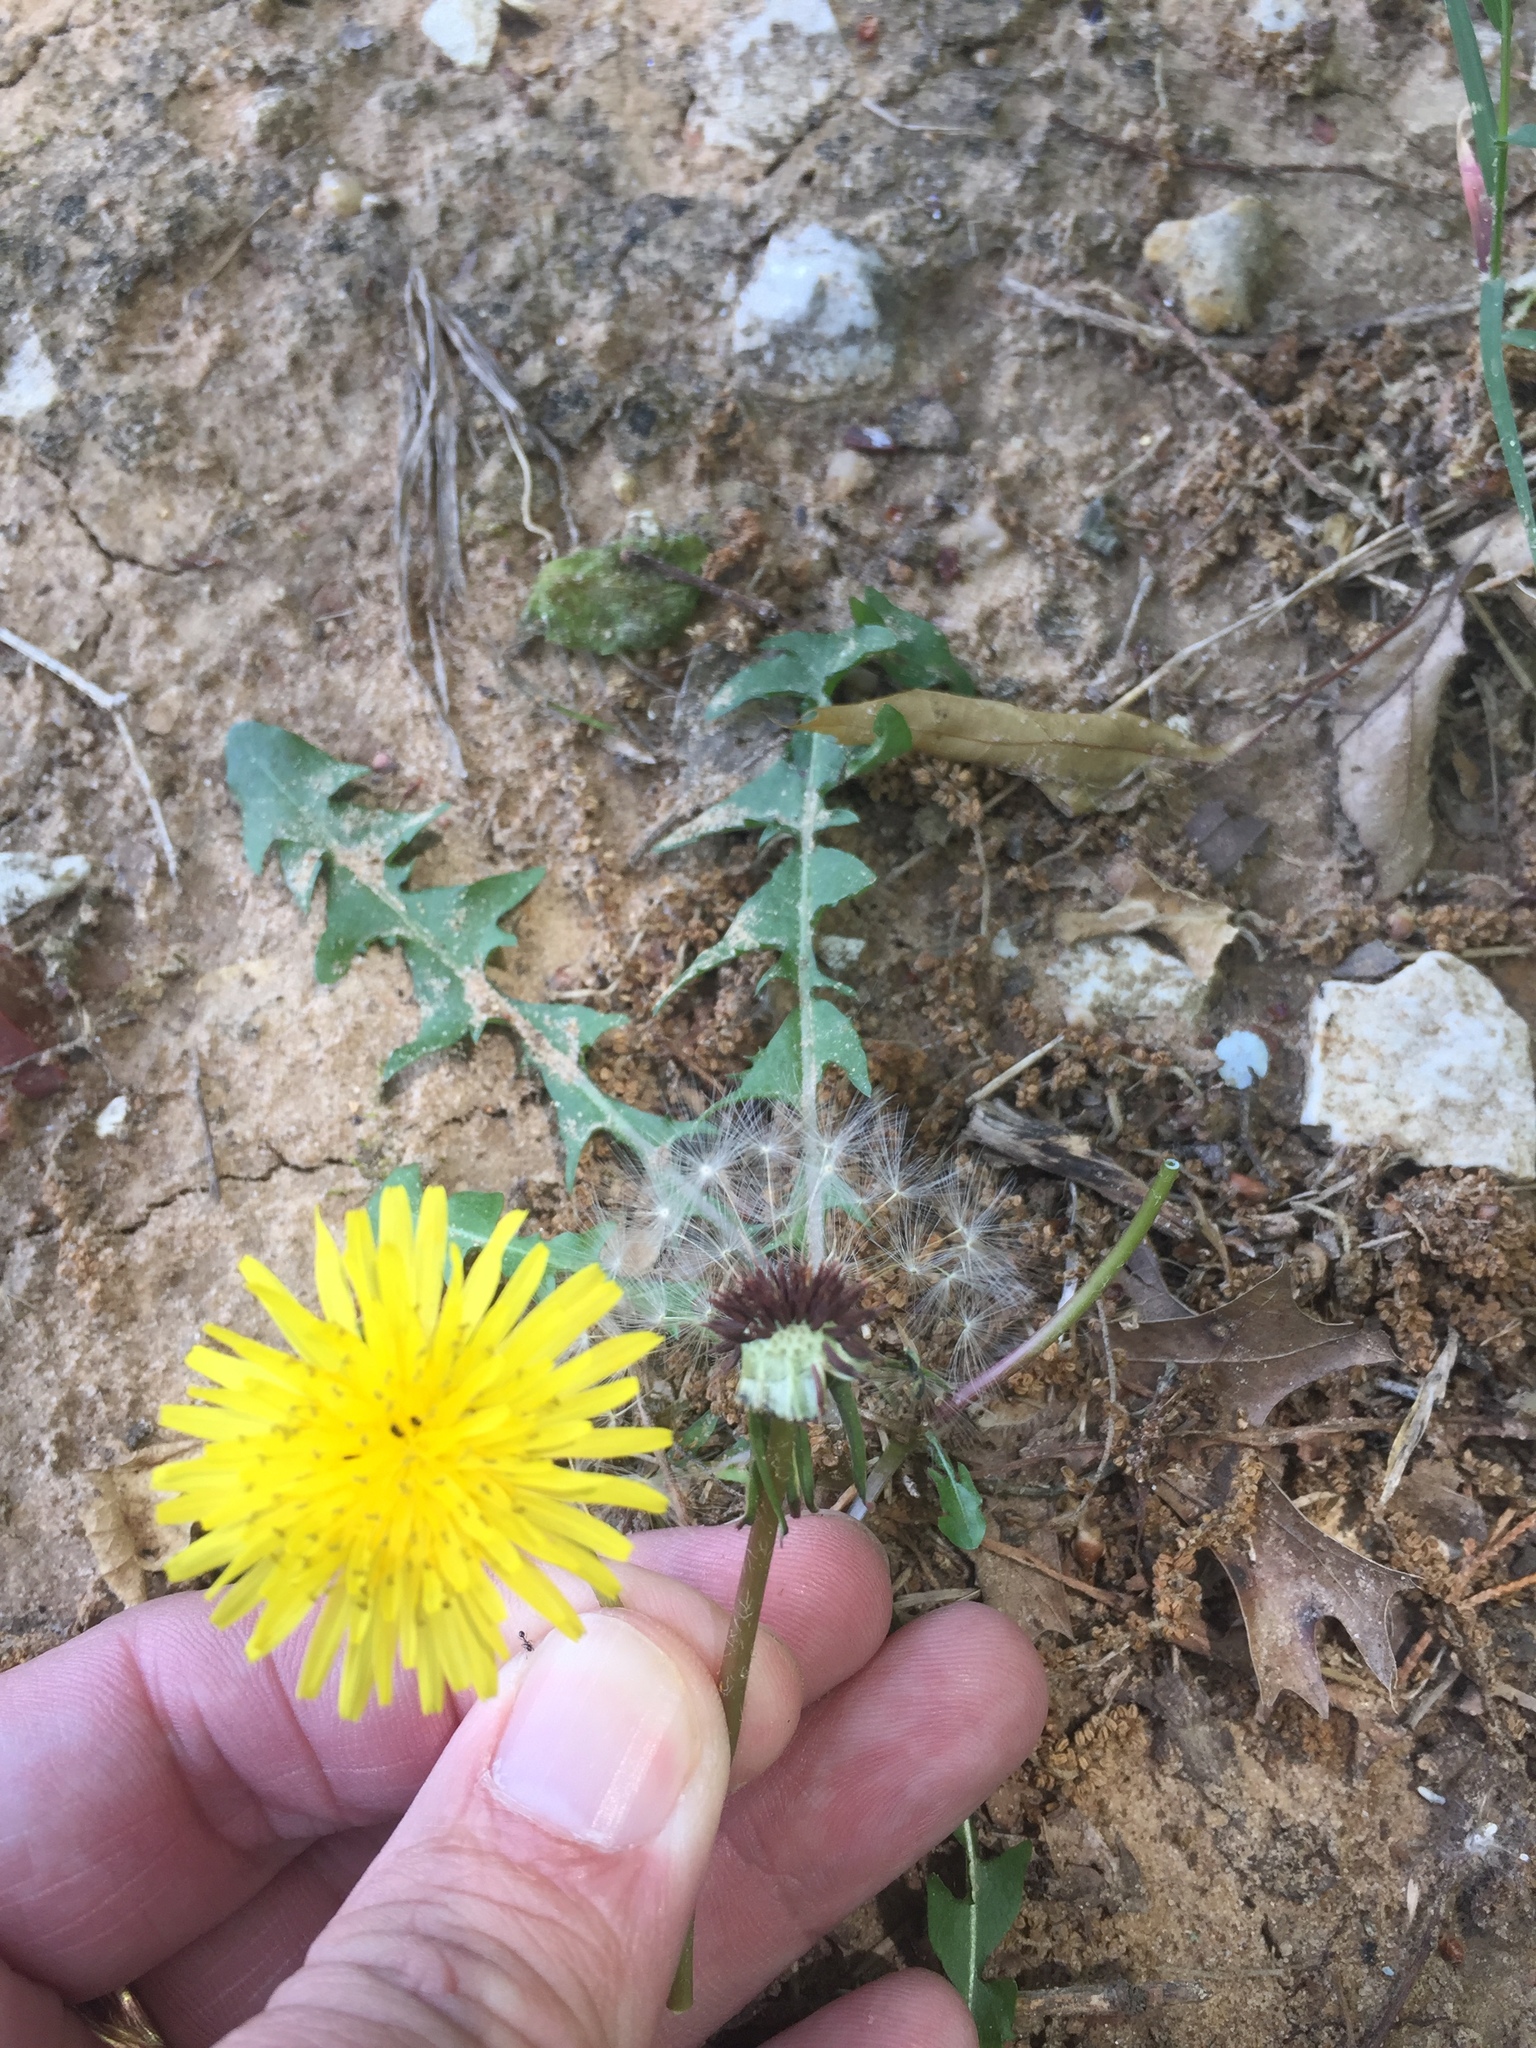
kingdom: Plantae
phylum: Tracheophyta
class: Magnoliopsida
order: Asterales
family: Asteraceae
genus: Taraxacum
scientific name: Taraxacum officinale
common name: Common dandelion
